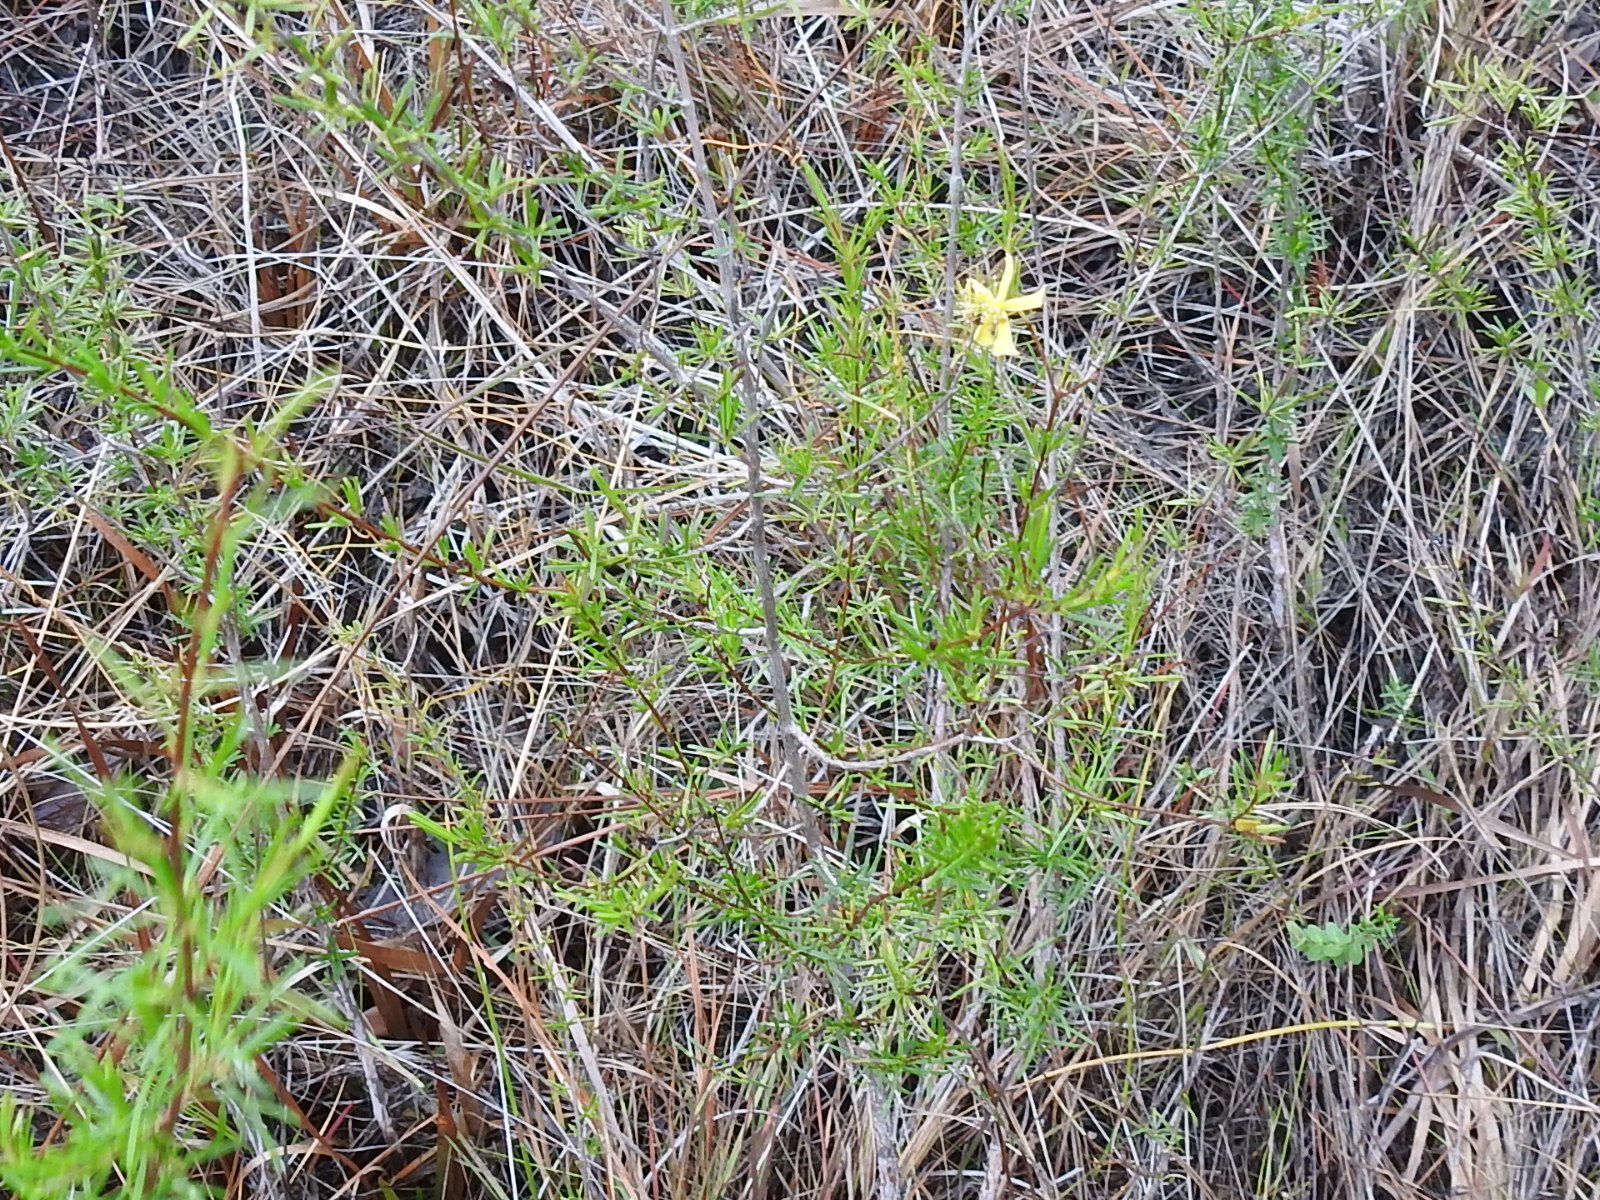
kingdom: Plantae
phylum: Tracheophyta
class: Magnoliopsida
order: Malpighiales
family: Hypericaceae
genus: Hypericum
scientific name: Hypericum fasciculatum
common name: Peelbark st. john's wort
